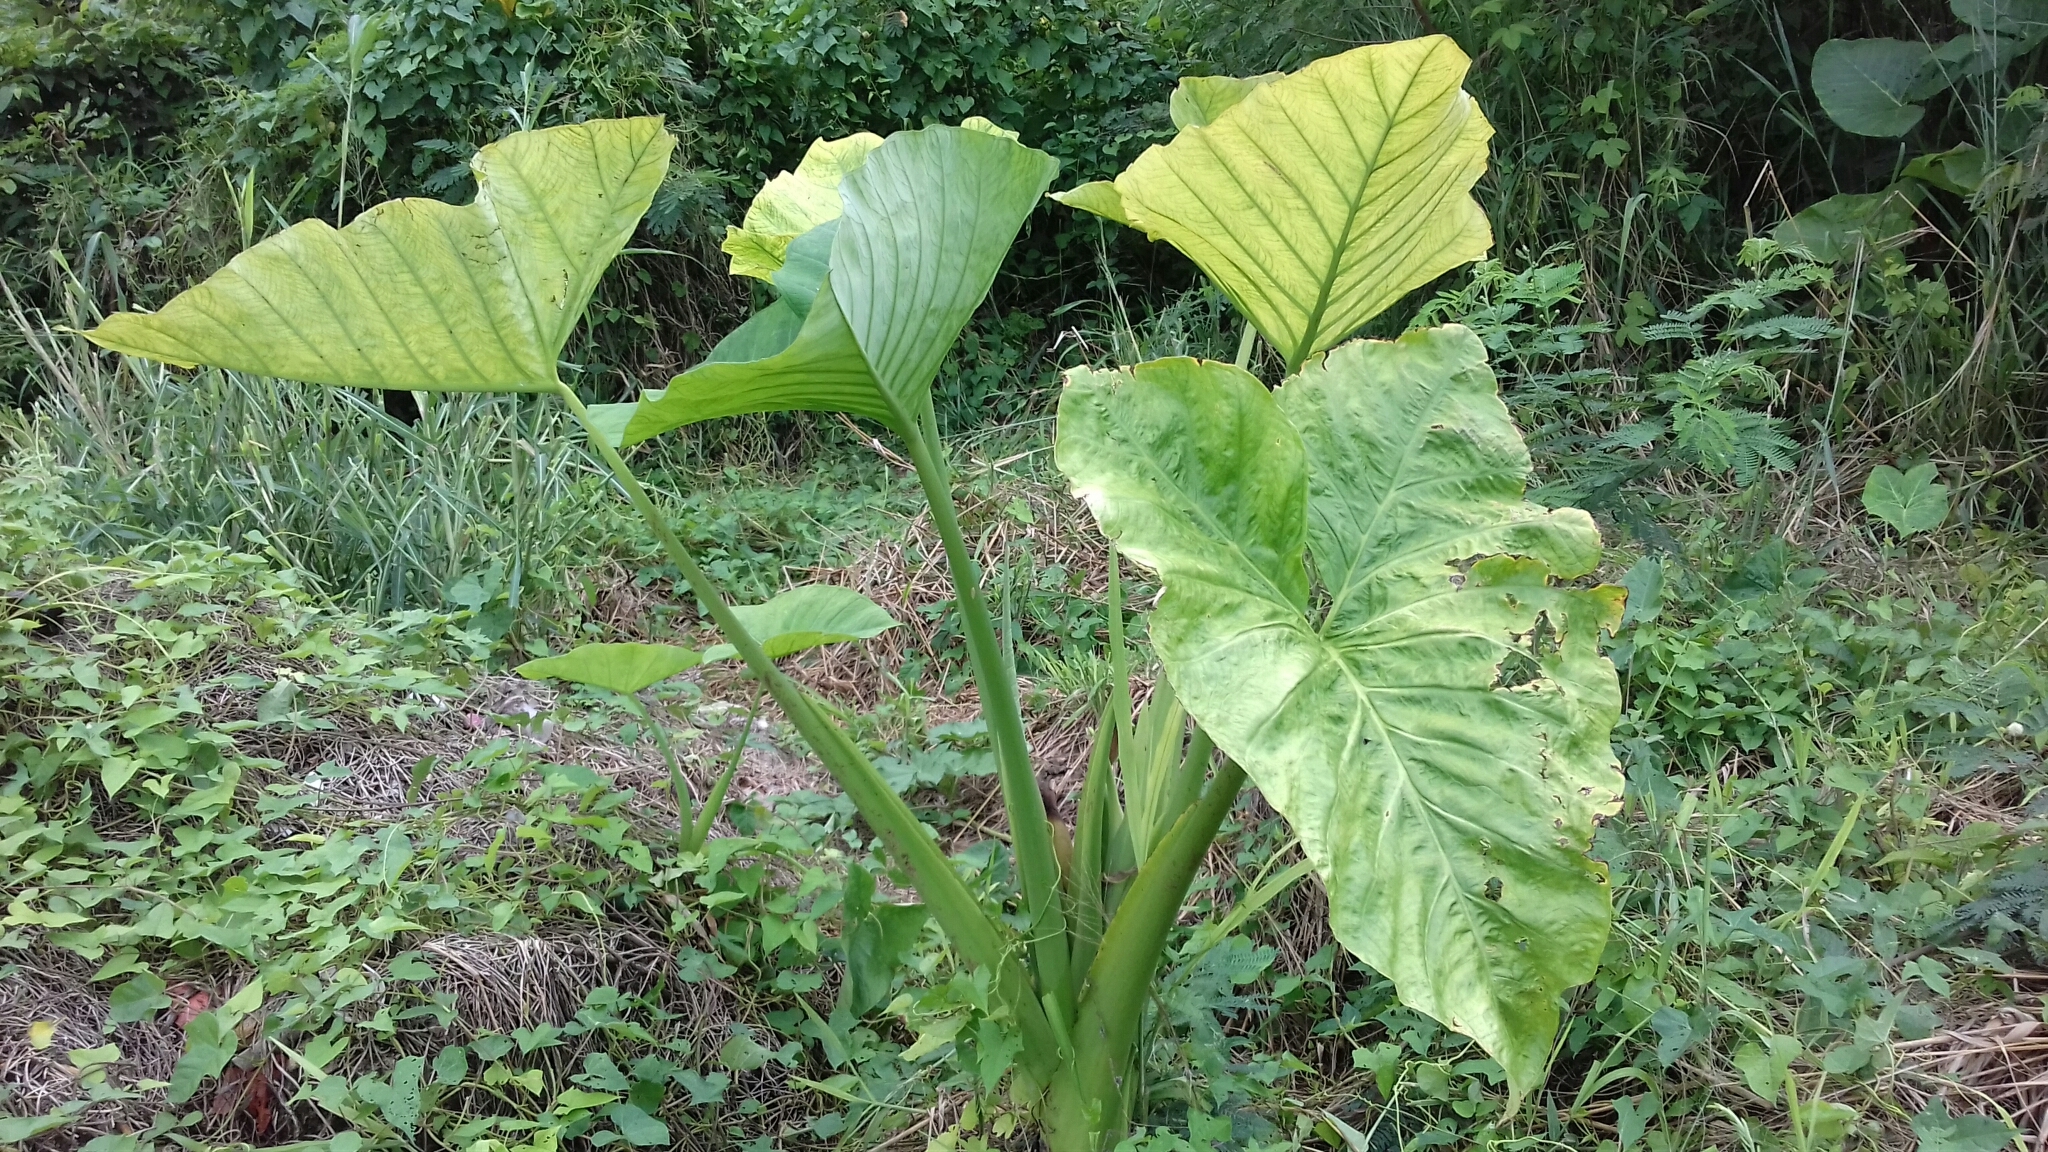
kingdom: Plantae
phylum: Tracheophyta
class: Liliopsida
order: Alismatales
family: Araceae
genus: Xanthosoma
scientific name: Xanthosoma sagittifolium
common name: Arrowleaf elephant's ear
